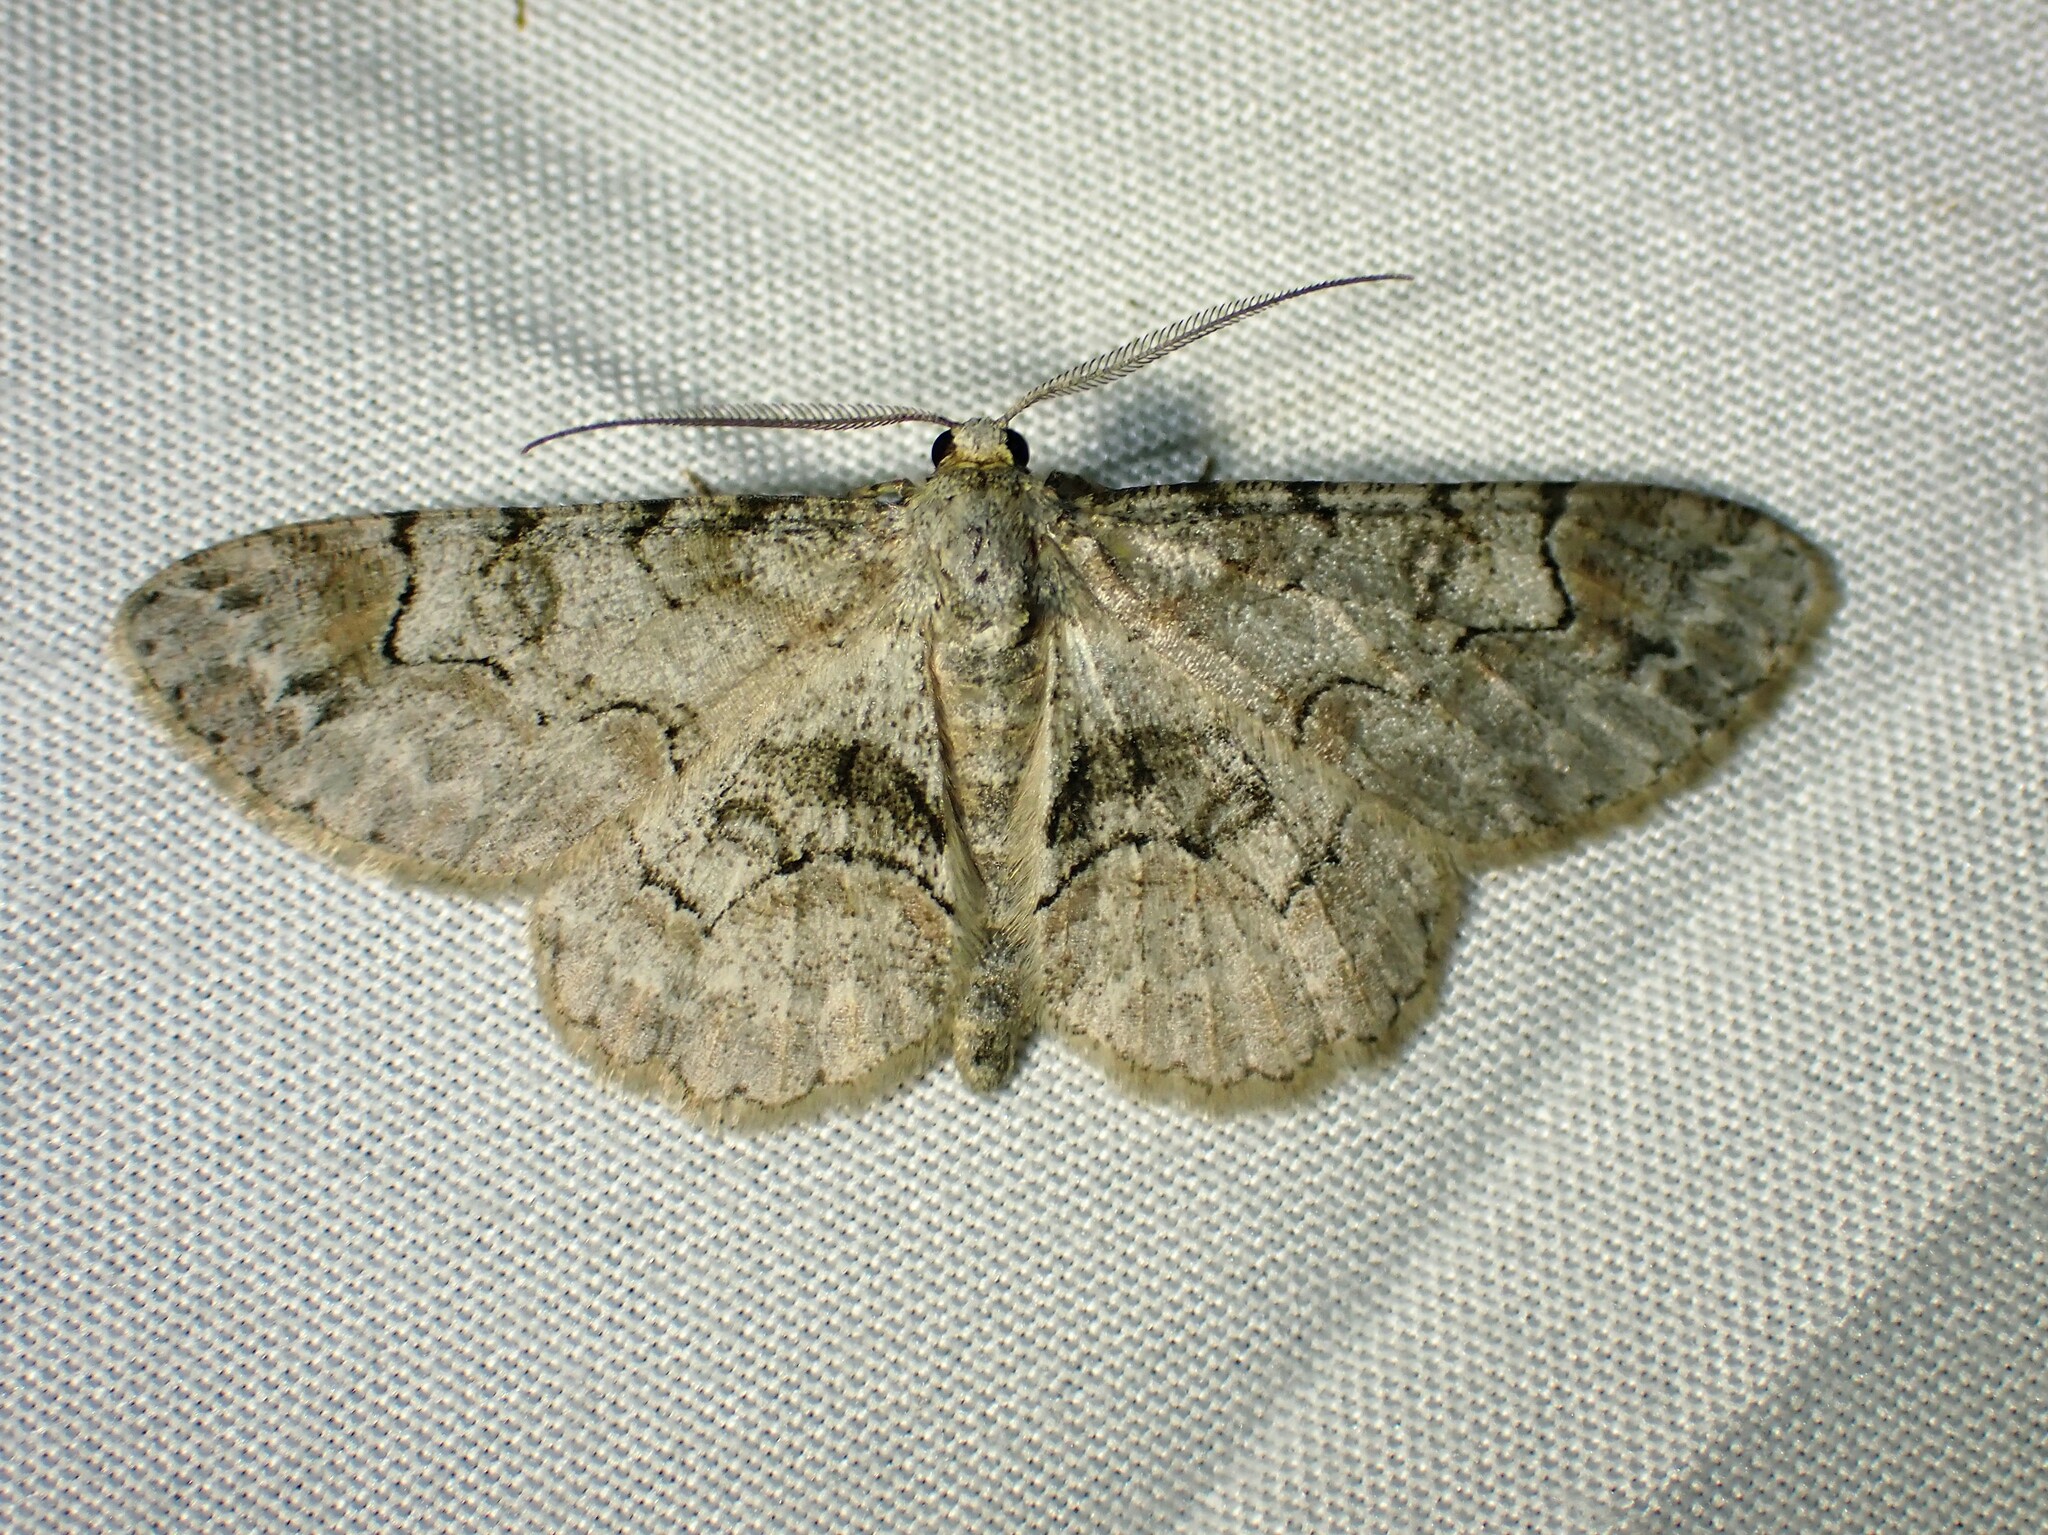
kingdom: Animalia
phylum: Arthropoda
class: Insecta
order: Lepidoptera
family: Geometridae
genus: Iridopsis
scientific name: Iridopsis larvaria
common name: Bent-line gray
